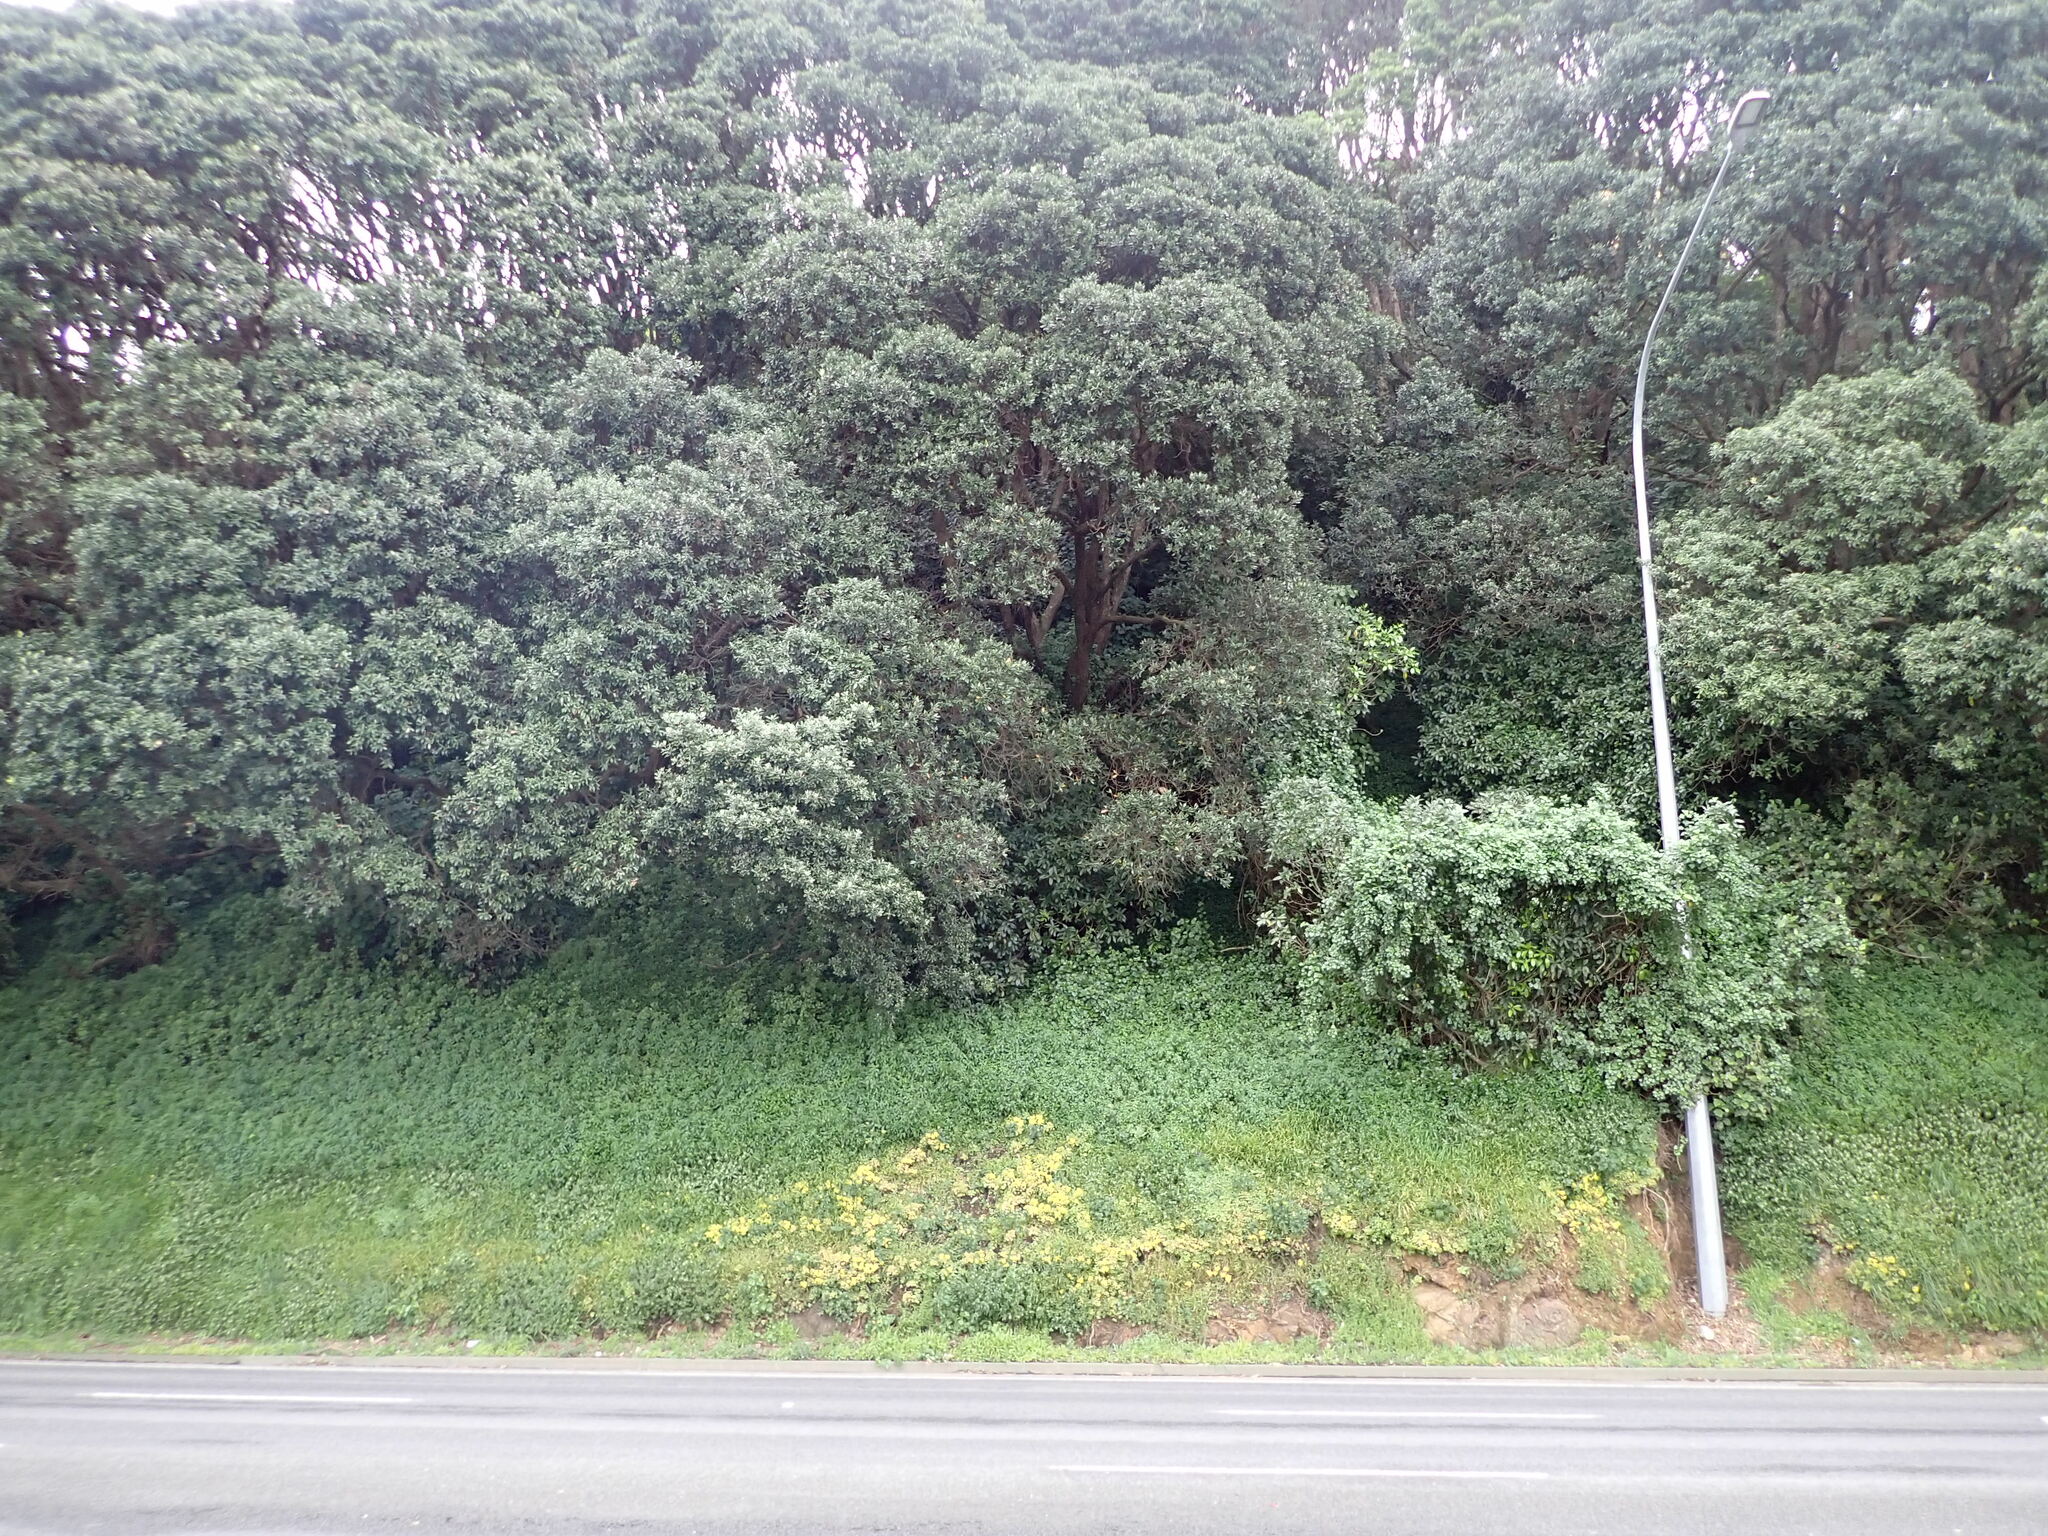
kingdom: Plantae
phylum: Tracheophyta
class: Magnoliopsida
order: Saxifragales
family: Crassulaceae
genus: Aichryson
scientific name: Aichryson laxum
